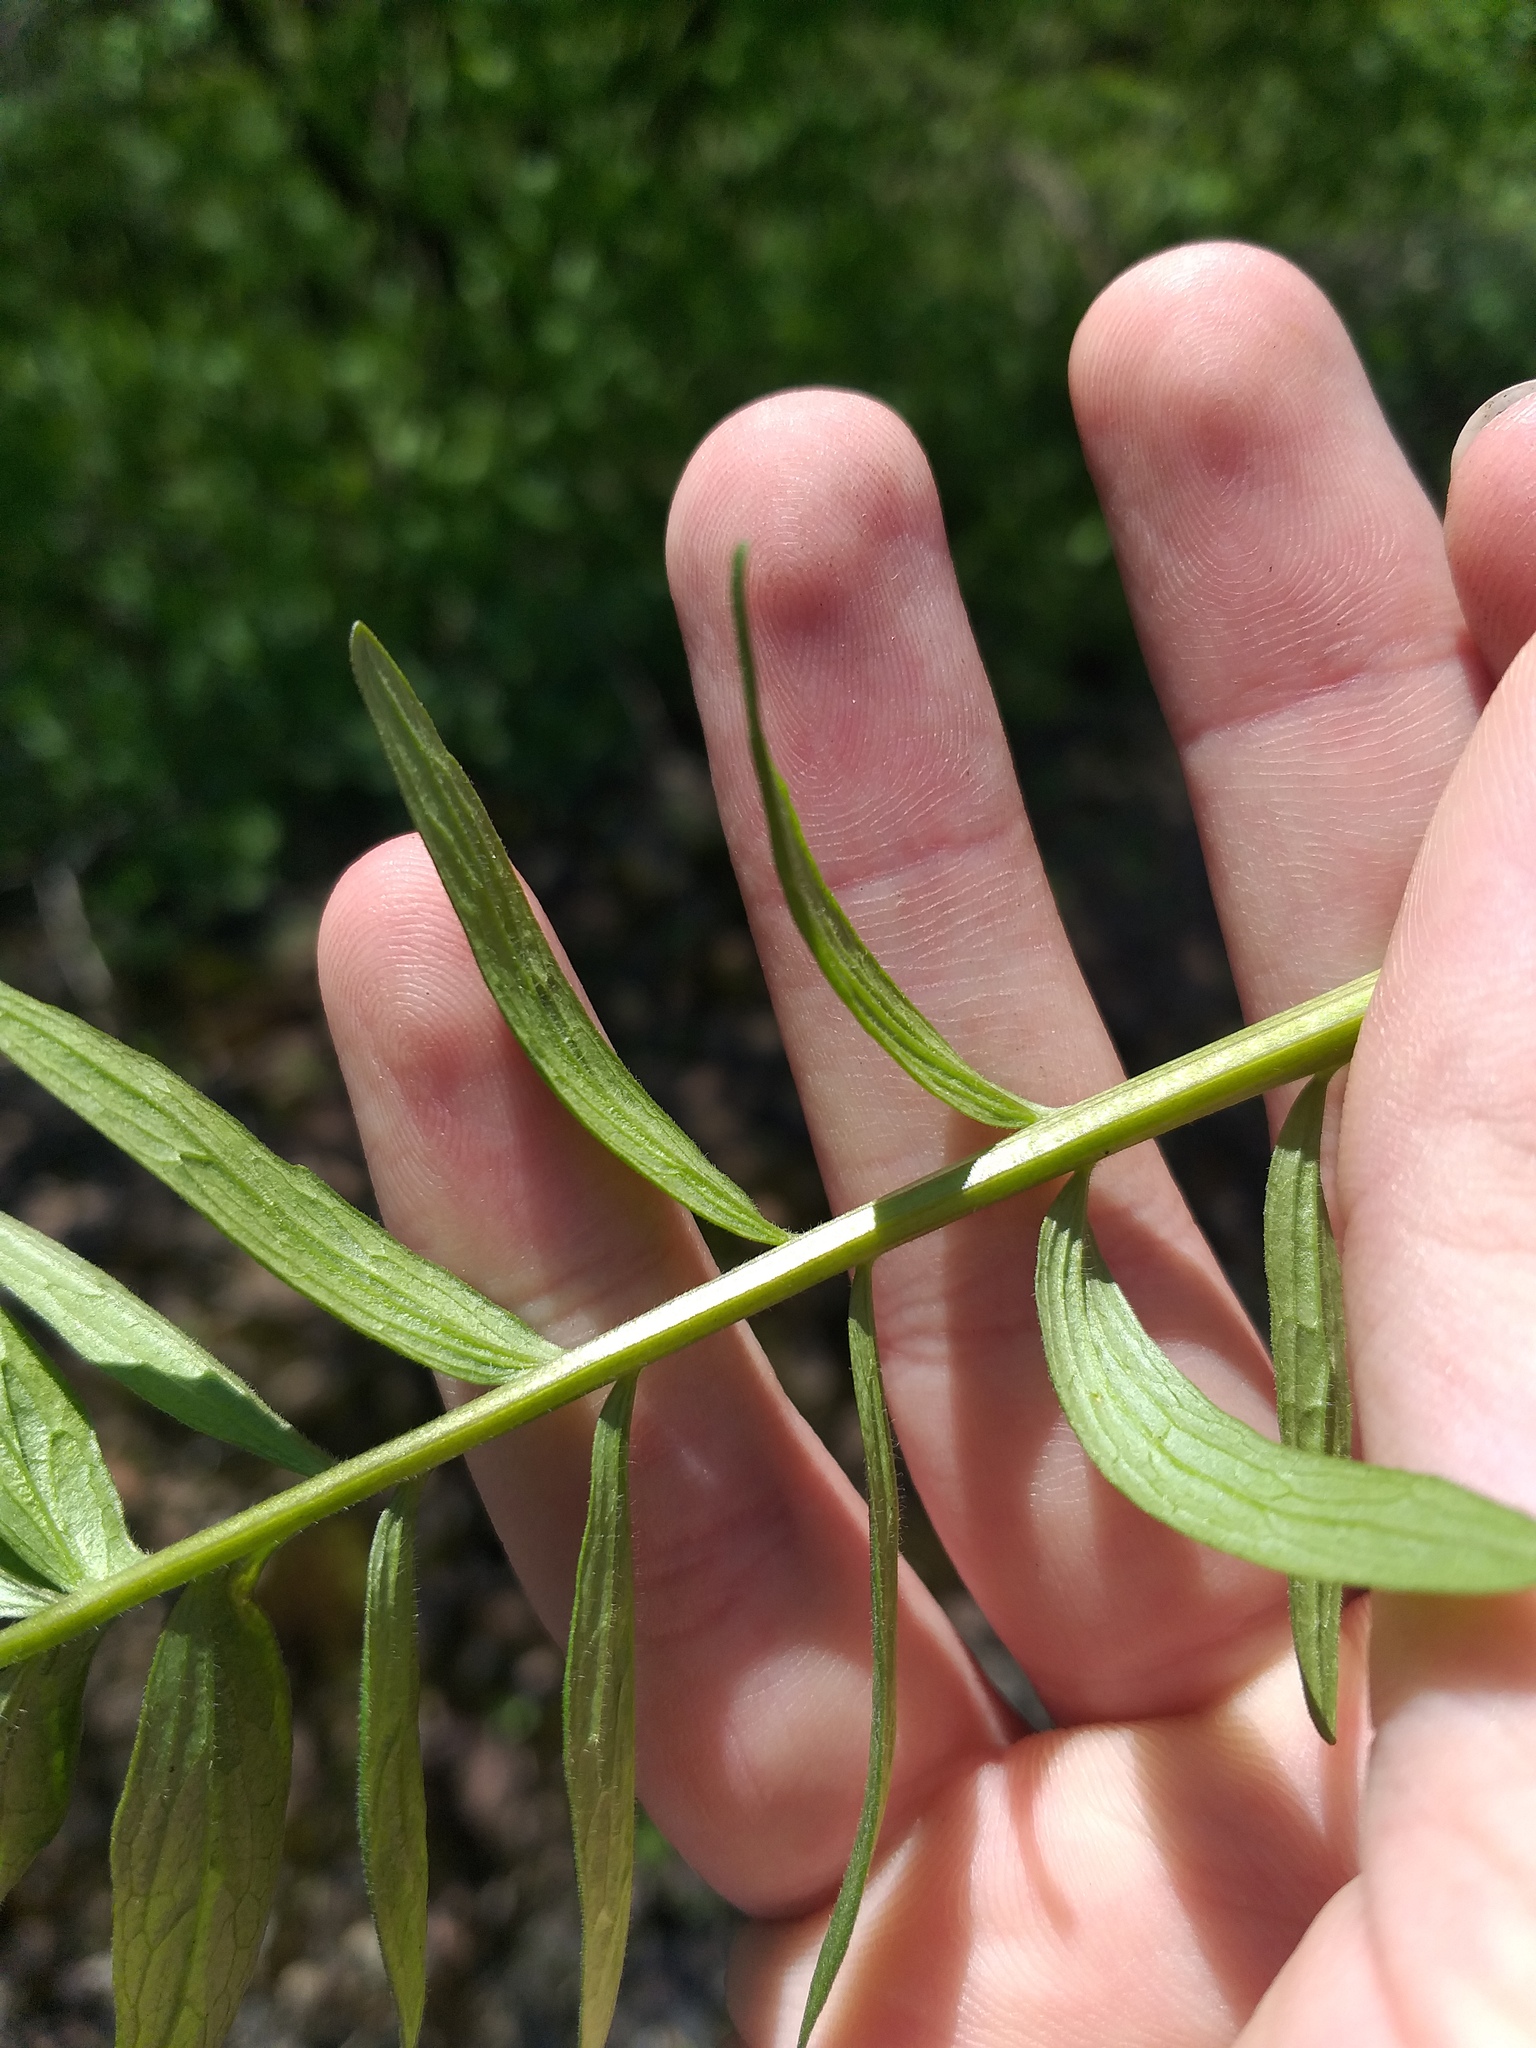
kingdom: Plantae
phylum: Tracheophyta
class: Magnoliopsida
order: Dipsacales
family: Caprifoliaceae
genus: Valeriana
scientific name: Valeriana officinalis
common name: Common valerian
